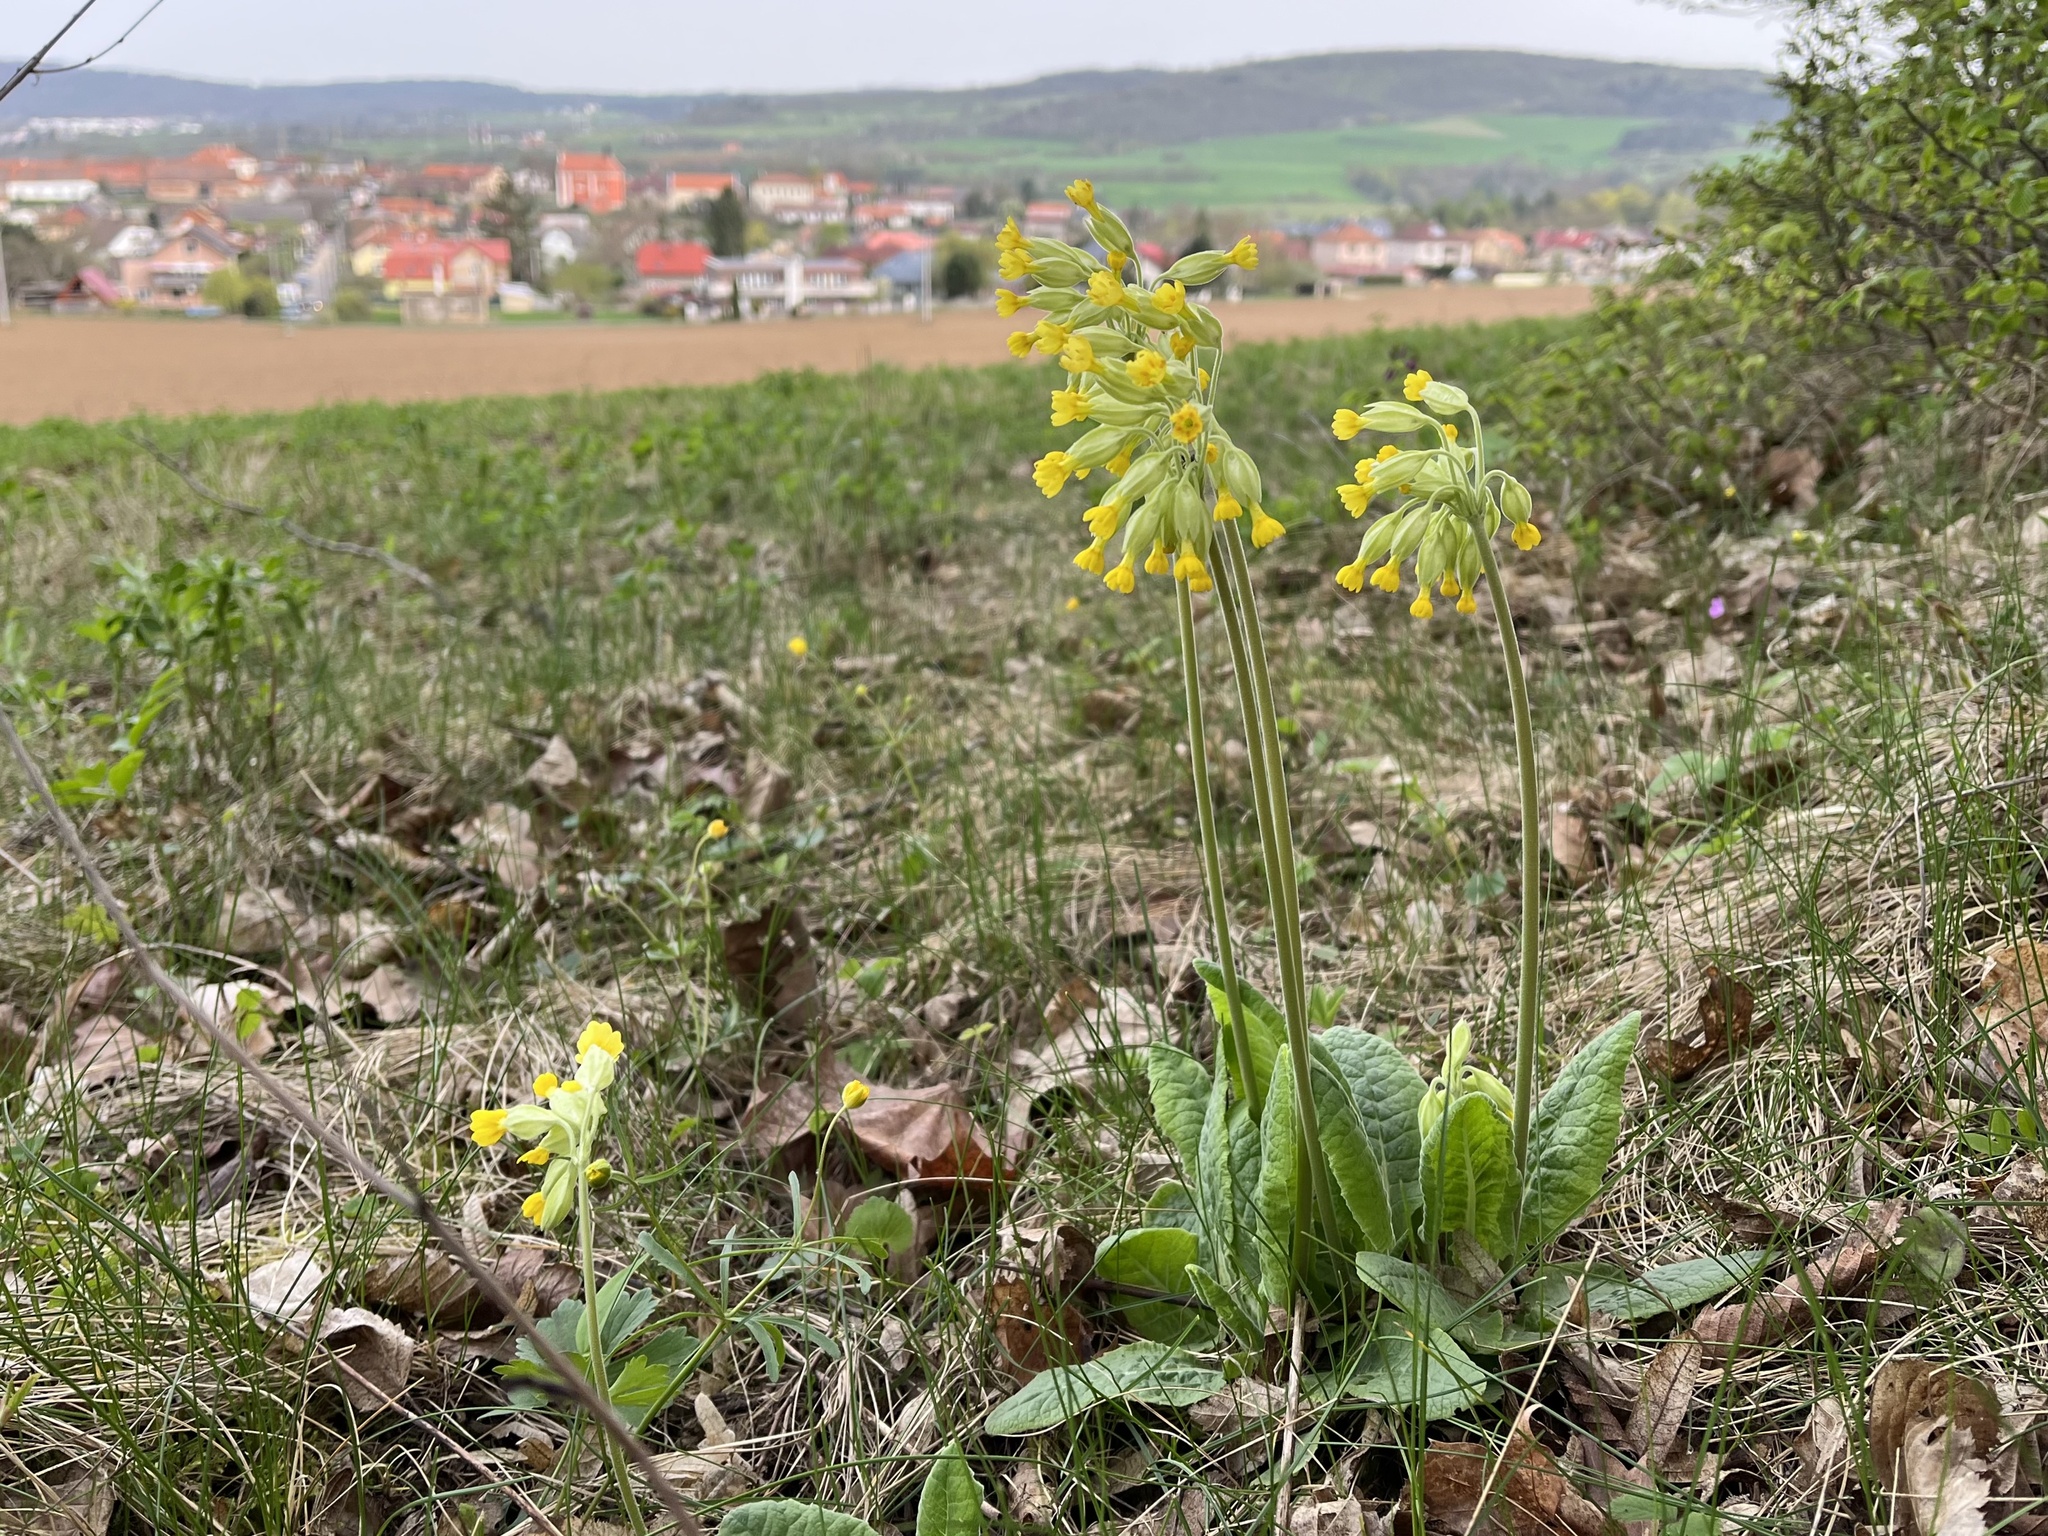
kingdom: Plantae
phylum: Tracheophyta
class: Magnoliopsida
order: Ericales
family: Primulaceae
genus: Primula
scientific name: Primula veris
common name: Cowslip
